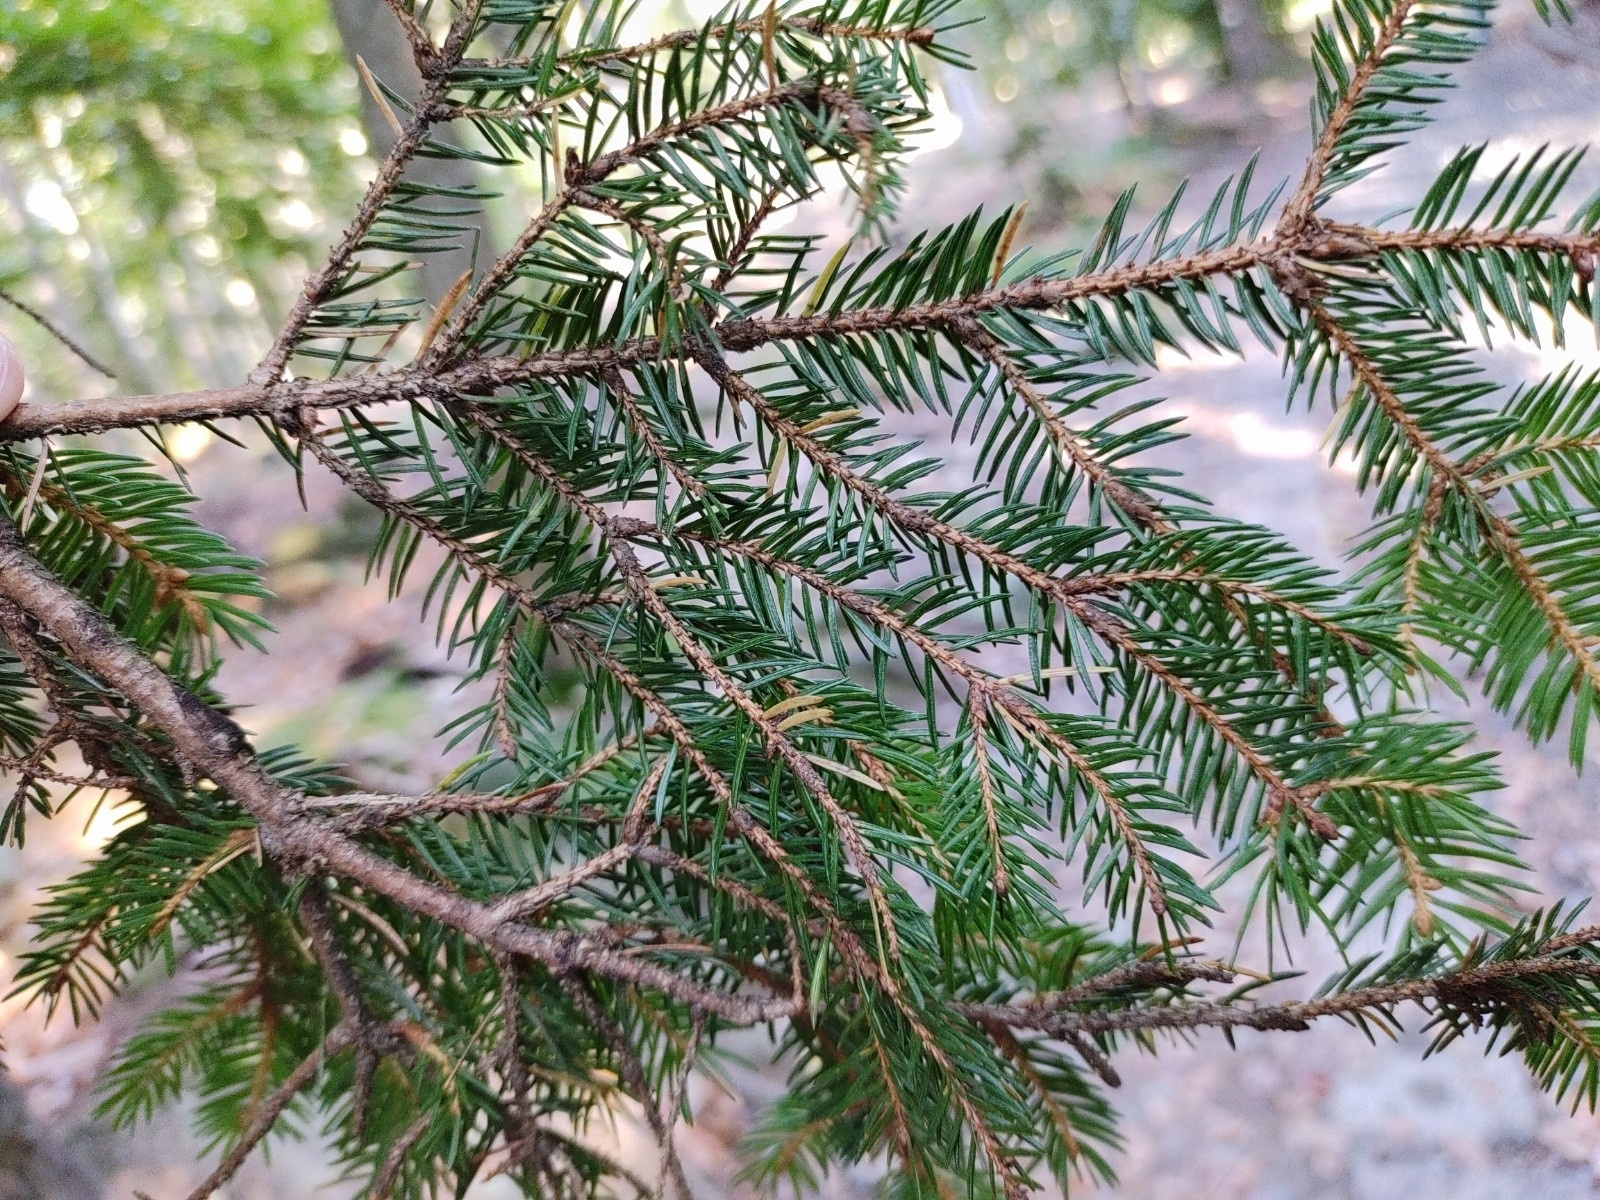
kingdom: Plantae
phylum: Tracheophyta
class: Pinopsida
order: Pinales
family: Pinaceae
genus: Picea
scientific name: Picea abies
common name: Norway spruce
